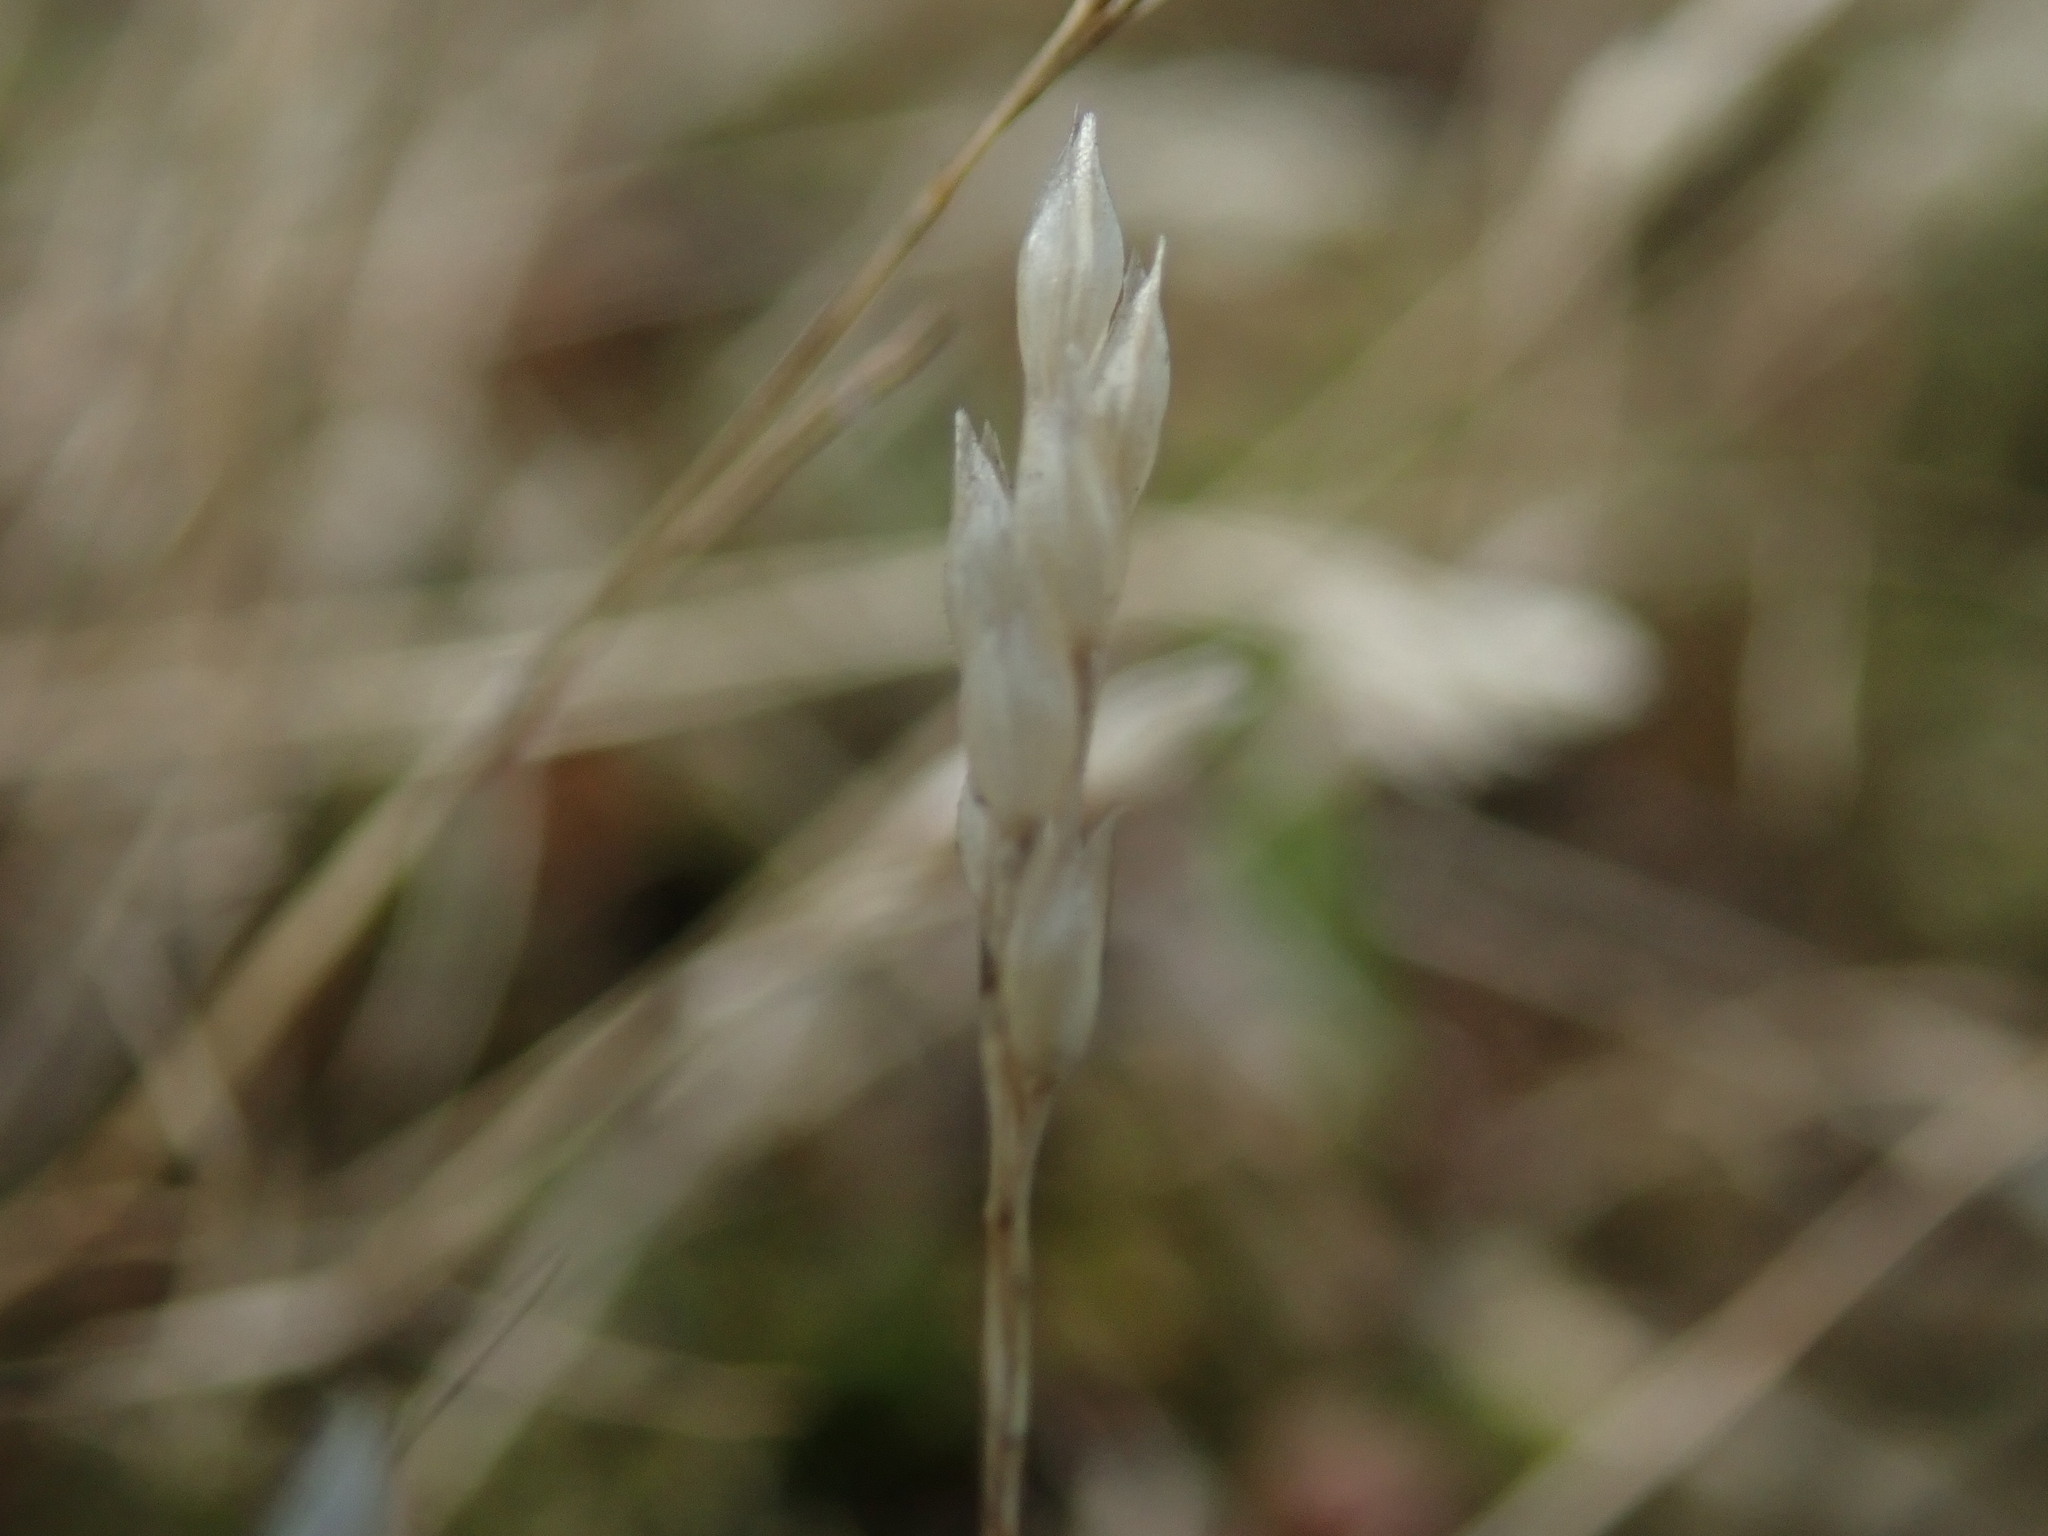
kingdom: Plantae
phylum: Tracheophyta
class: Liliopsida
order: Poales
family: Poaceae
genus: Aira
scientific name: Aira praecox
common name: Early hair-grass
